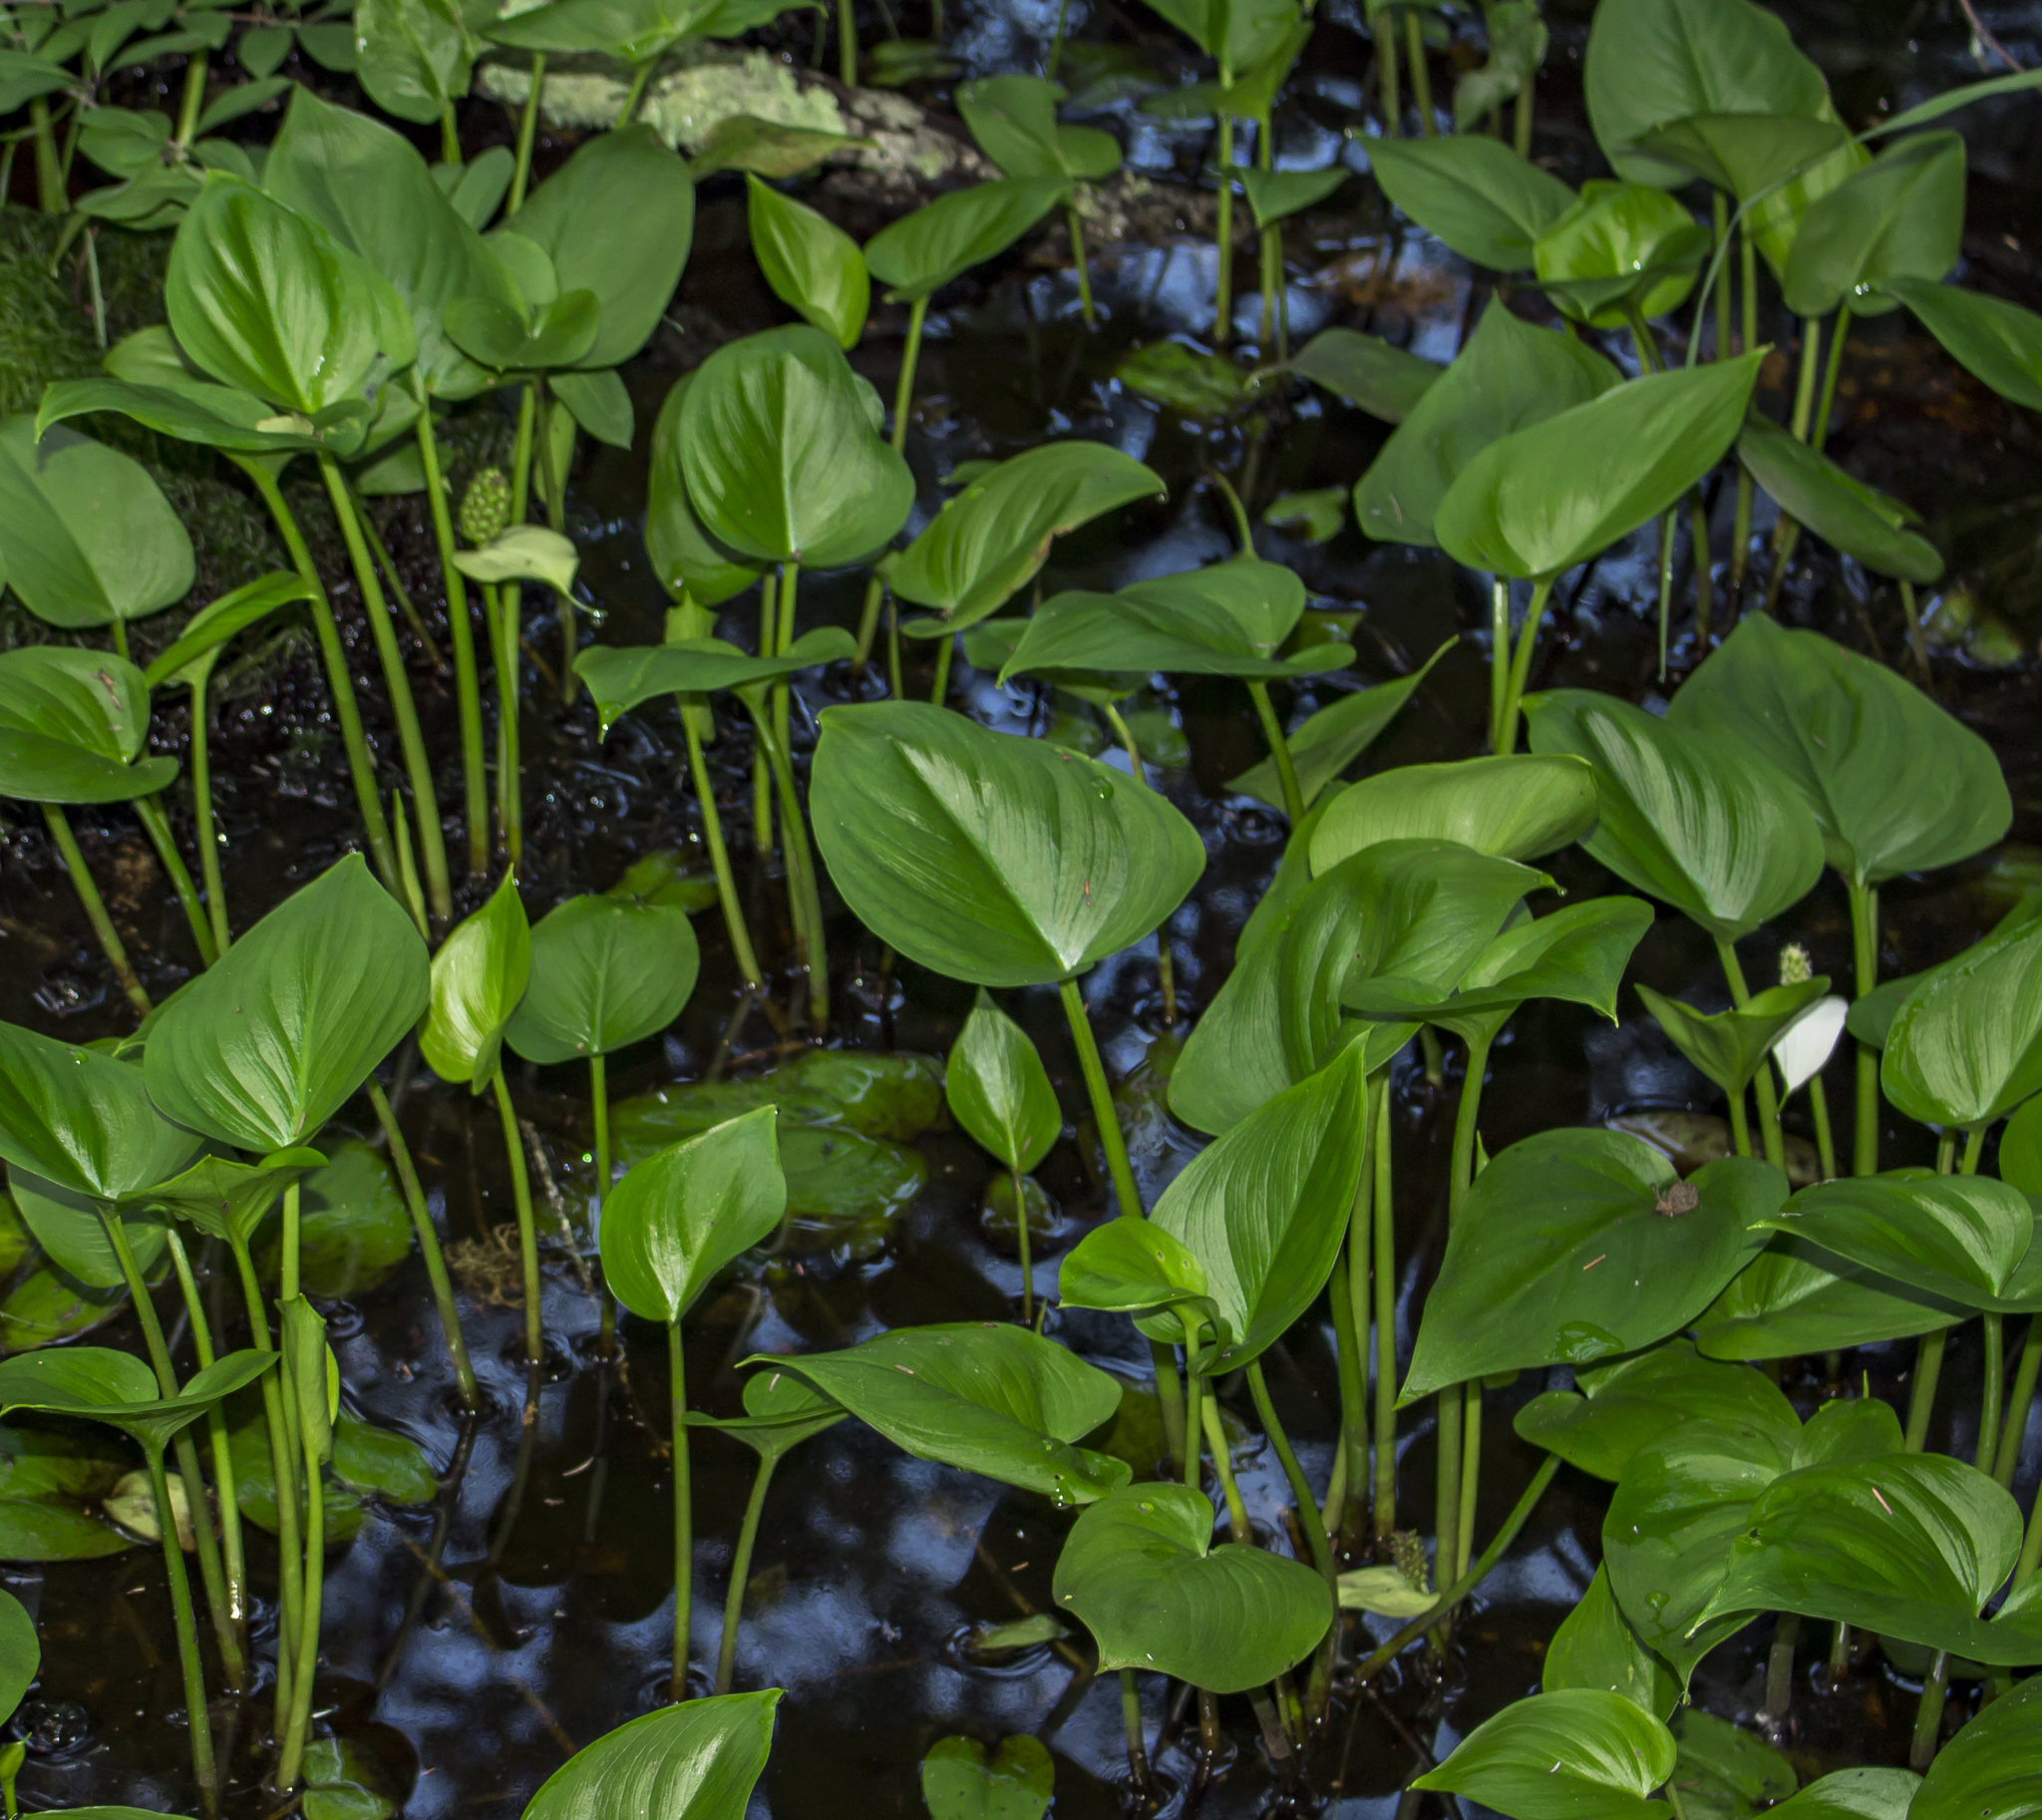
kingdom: Plantae
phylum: Tracheophyta
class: Liliopsida
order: Alismatales
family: Araceae
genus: Calla
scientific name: Calla palustris
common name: Bog arum
